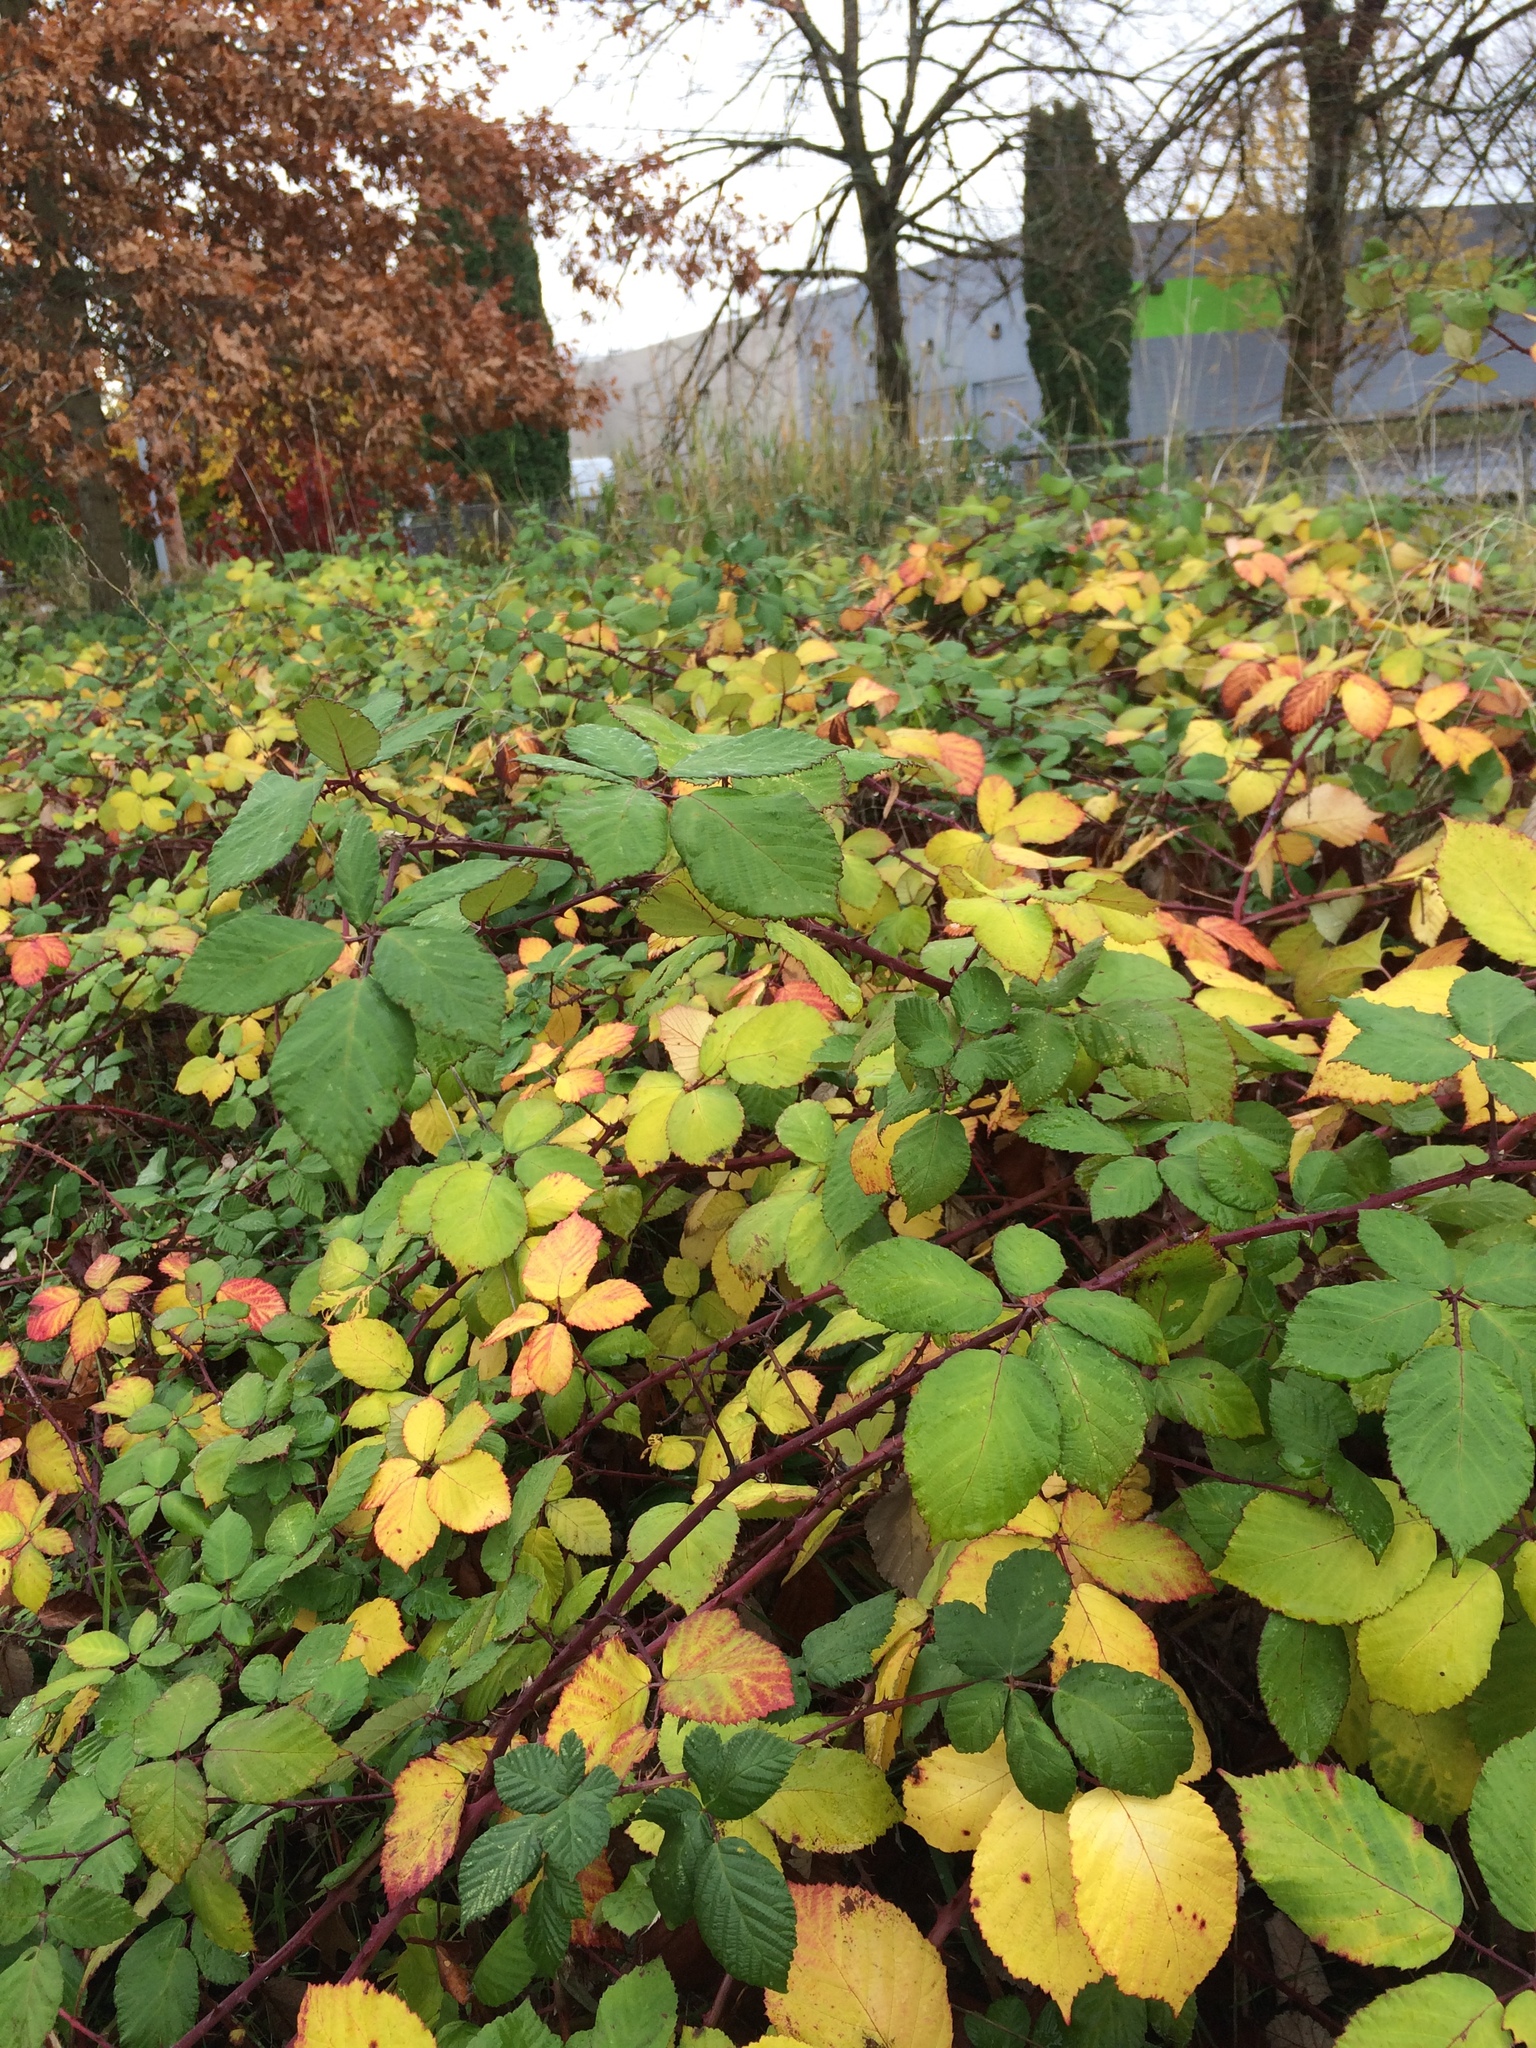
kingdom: Plantae
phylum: Tracheophyta
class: Magnoliopsida
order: Rosales
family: Rosaceae
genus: Rubus
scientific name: Rubus bifrons
